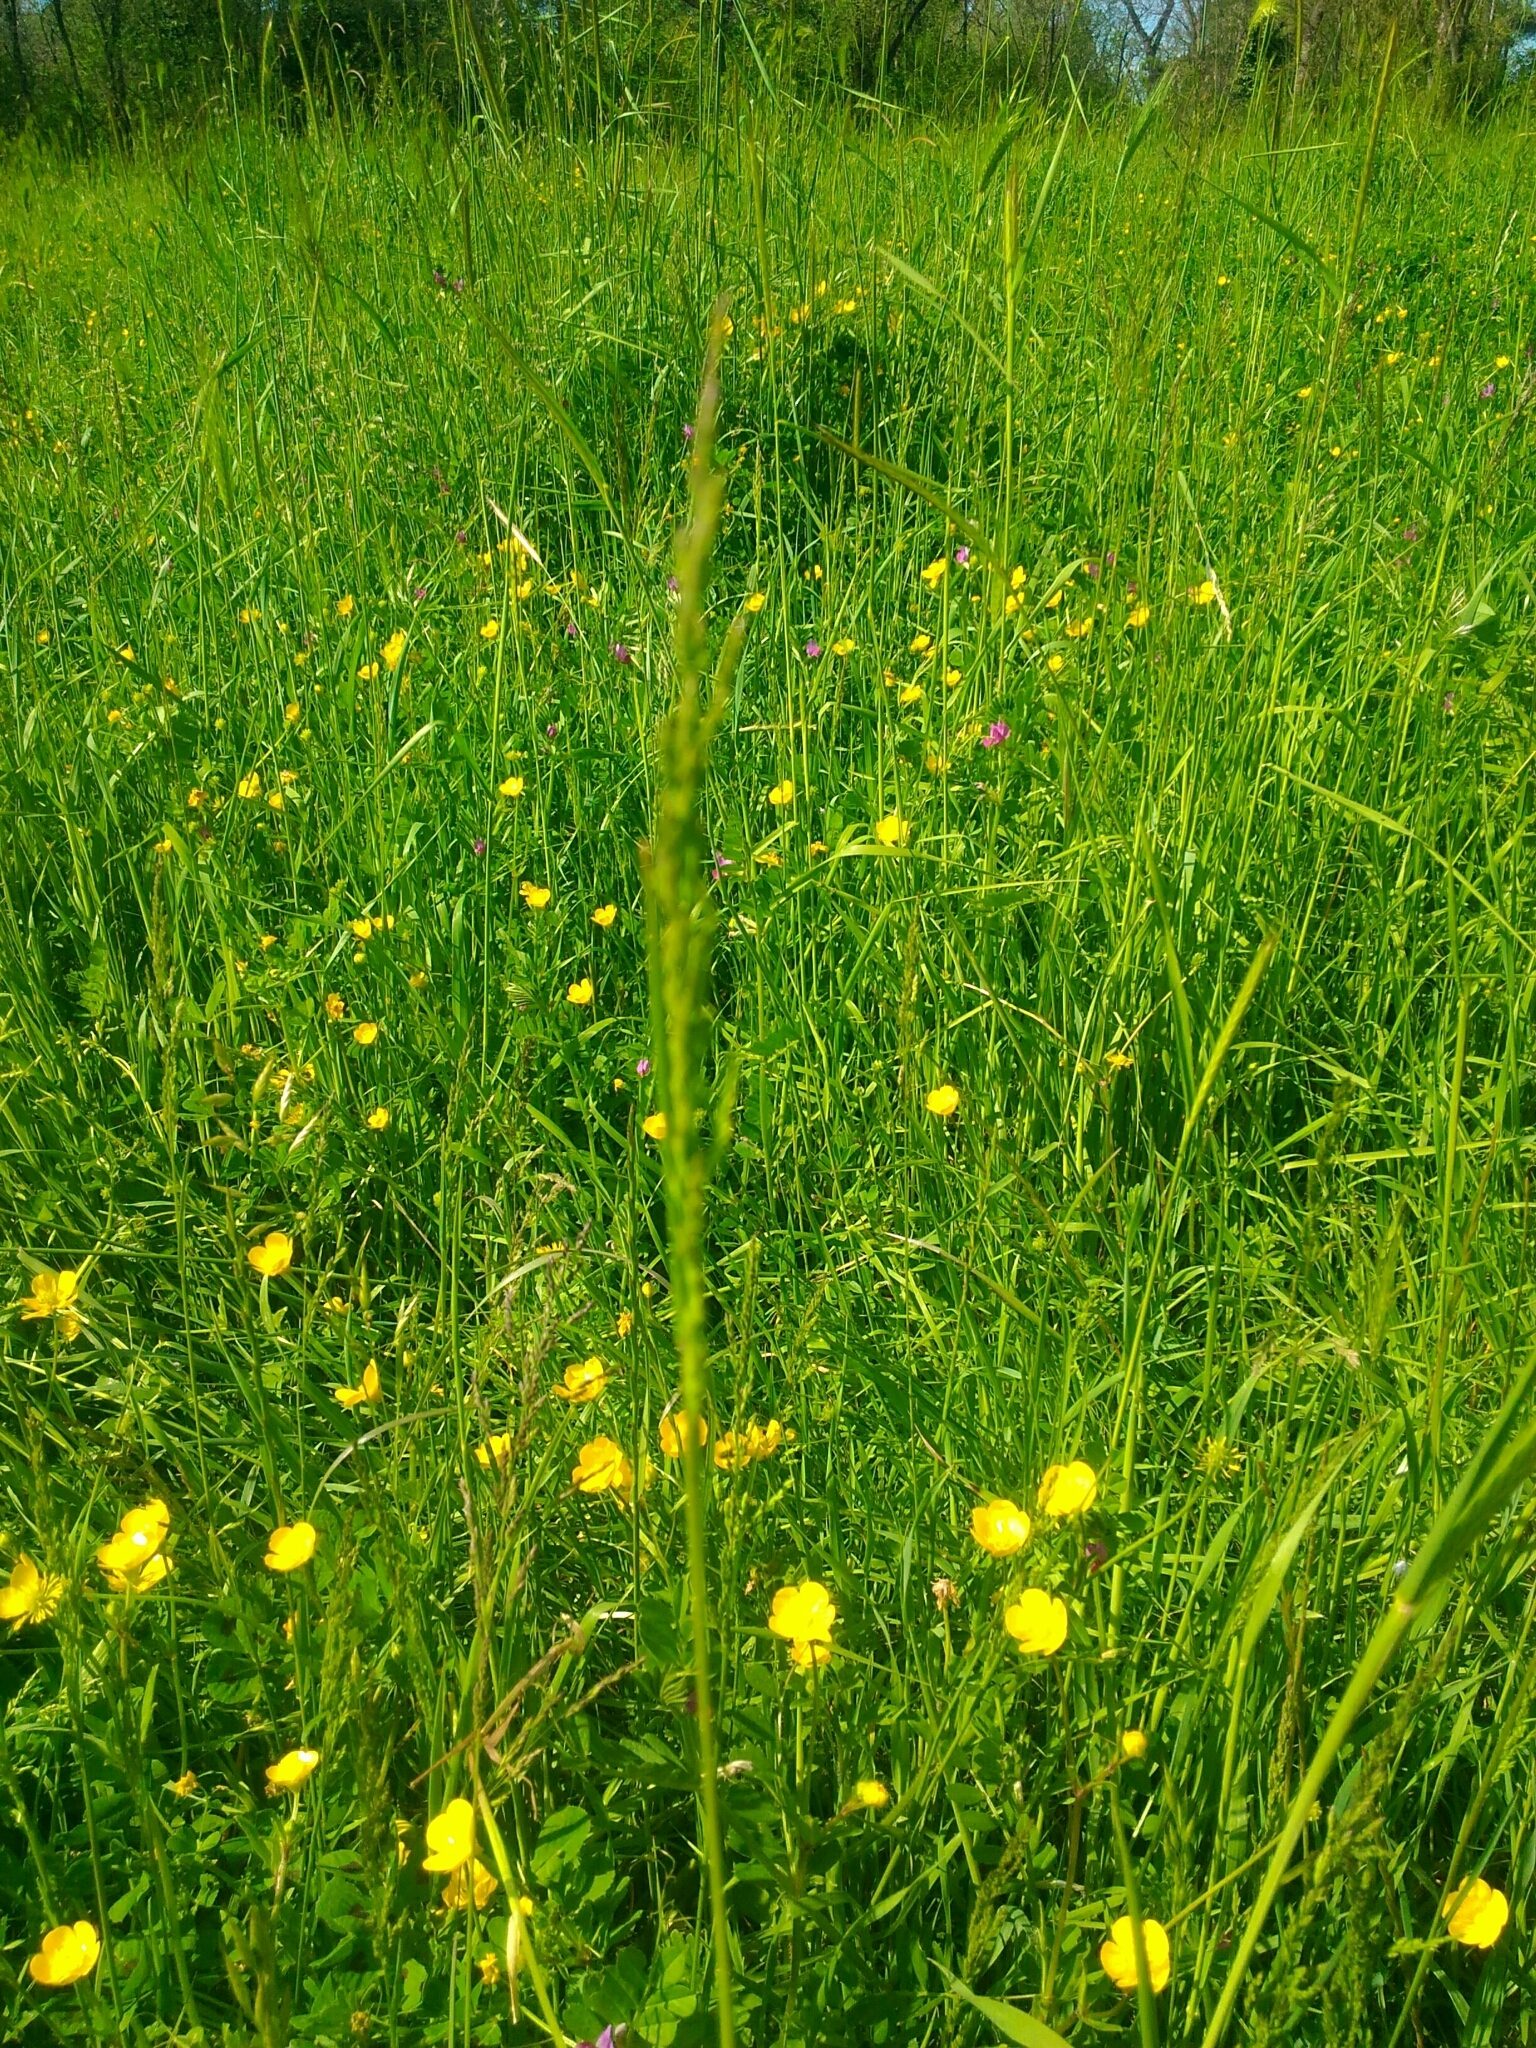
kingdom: Plantae
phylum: Tracheophyta
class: Liliopsida
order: Poales
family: Poaceae
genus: Poa
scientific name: Poa trivialis
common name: Rough bluegrass
